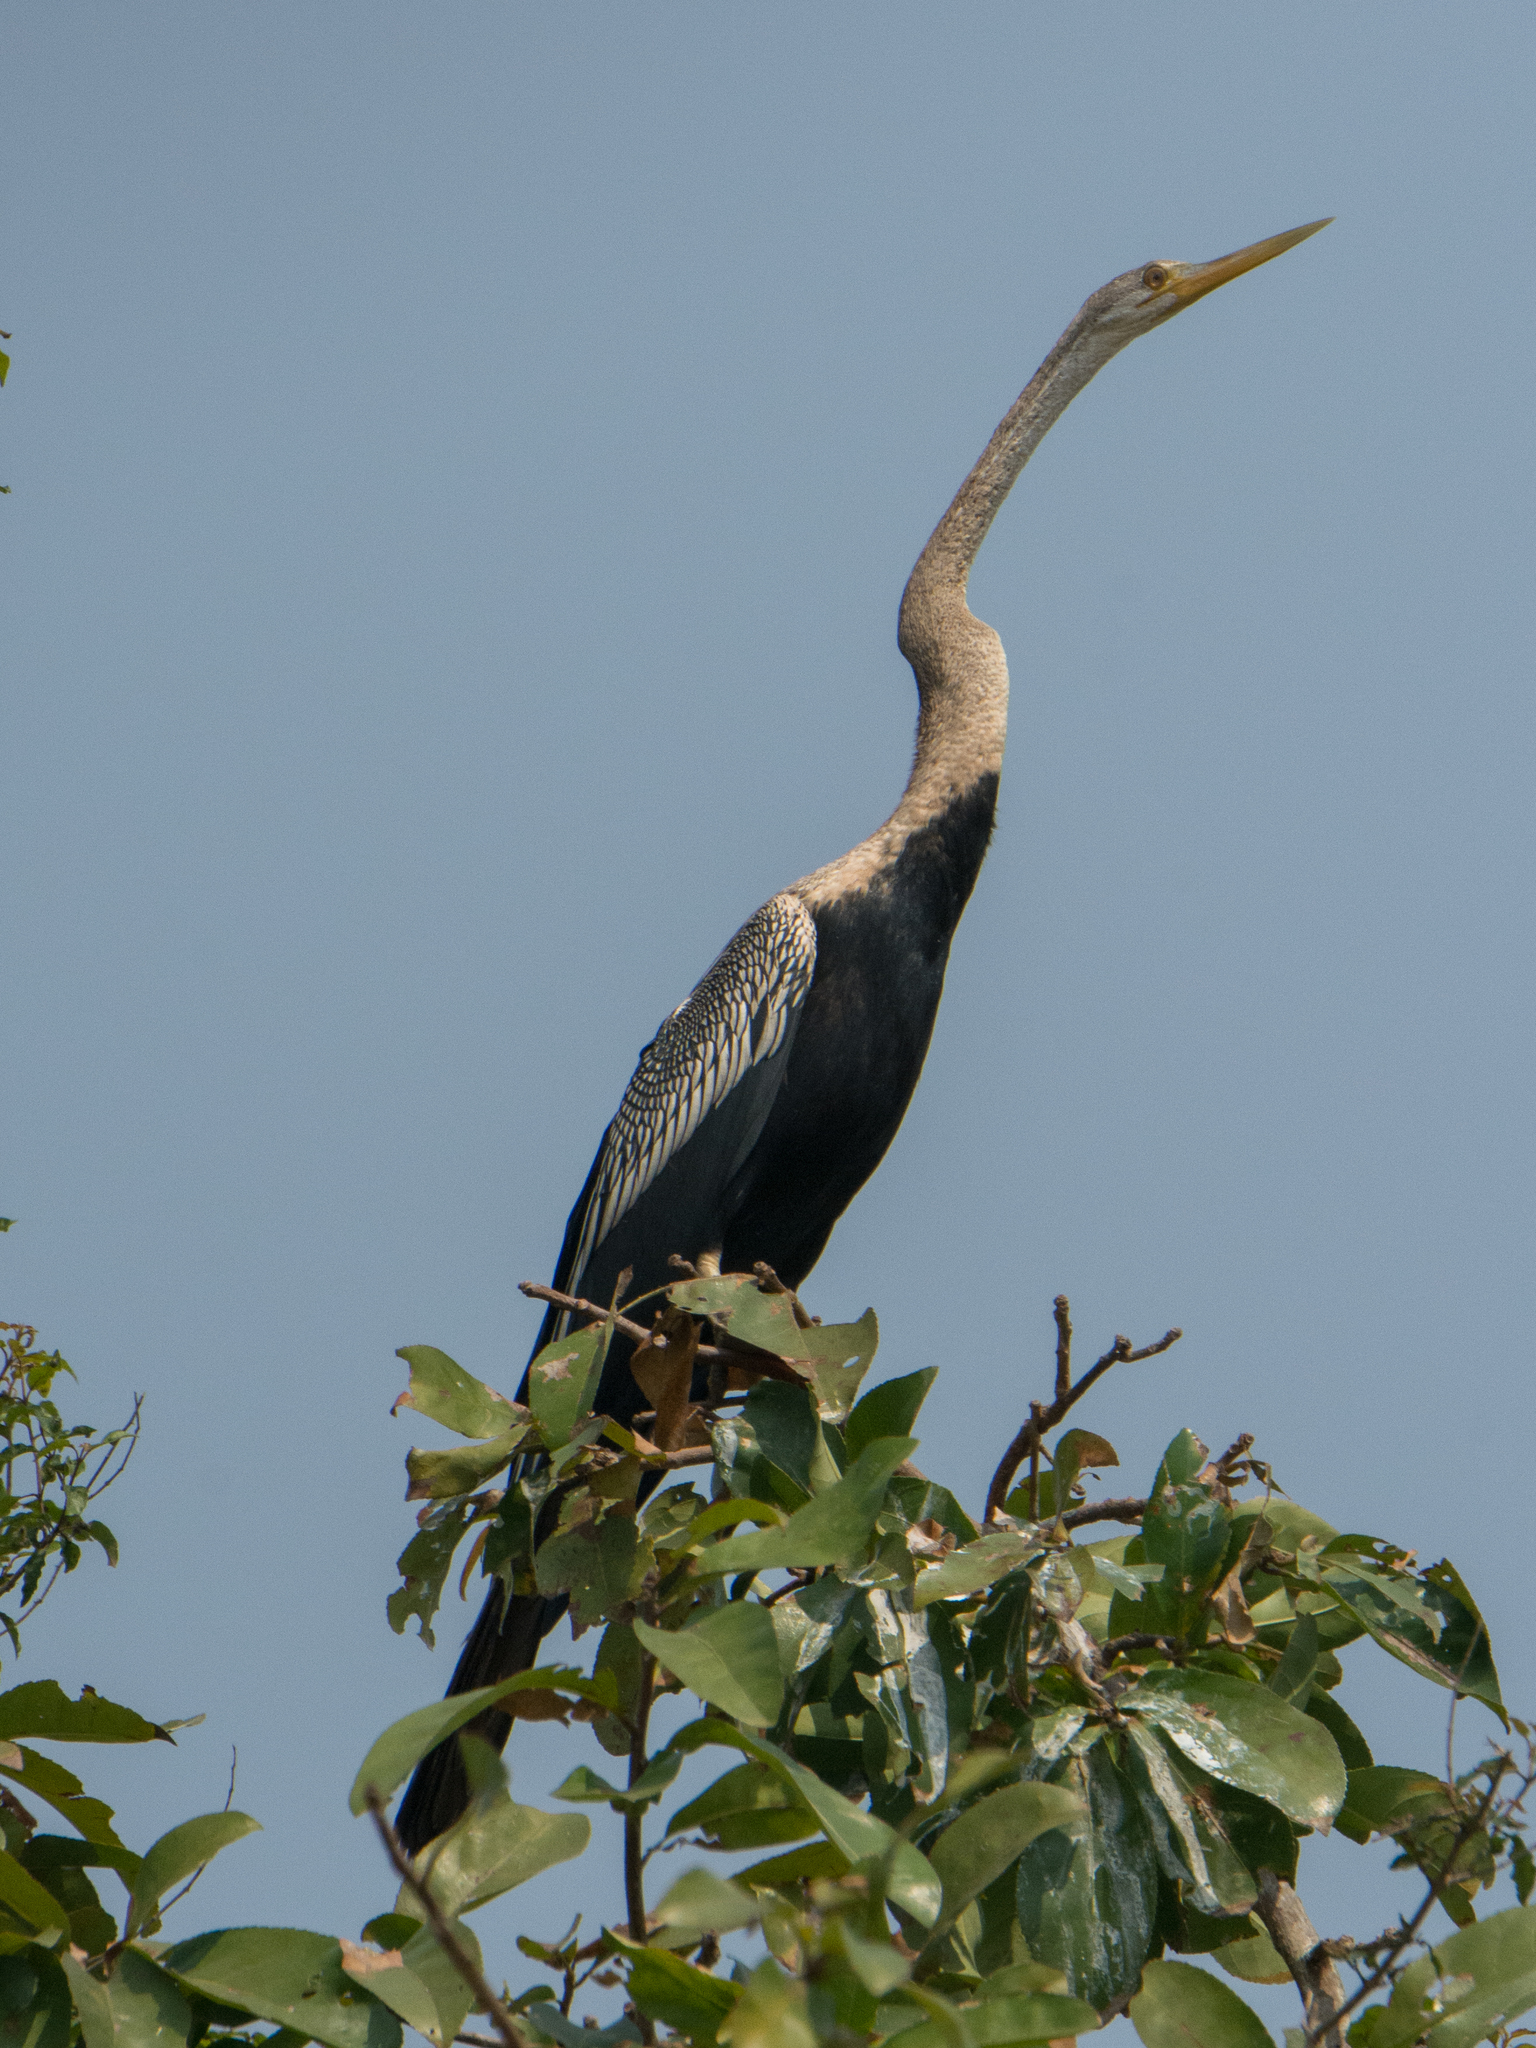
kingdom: Animalia
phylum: Chordata
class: Aves
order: Suliformes
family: Anhingidae
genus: Anhinga
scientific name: Anhinga melanogaster
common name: Oriental darter
